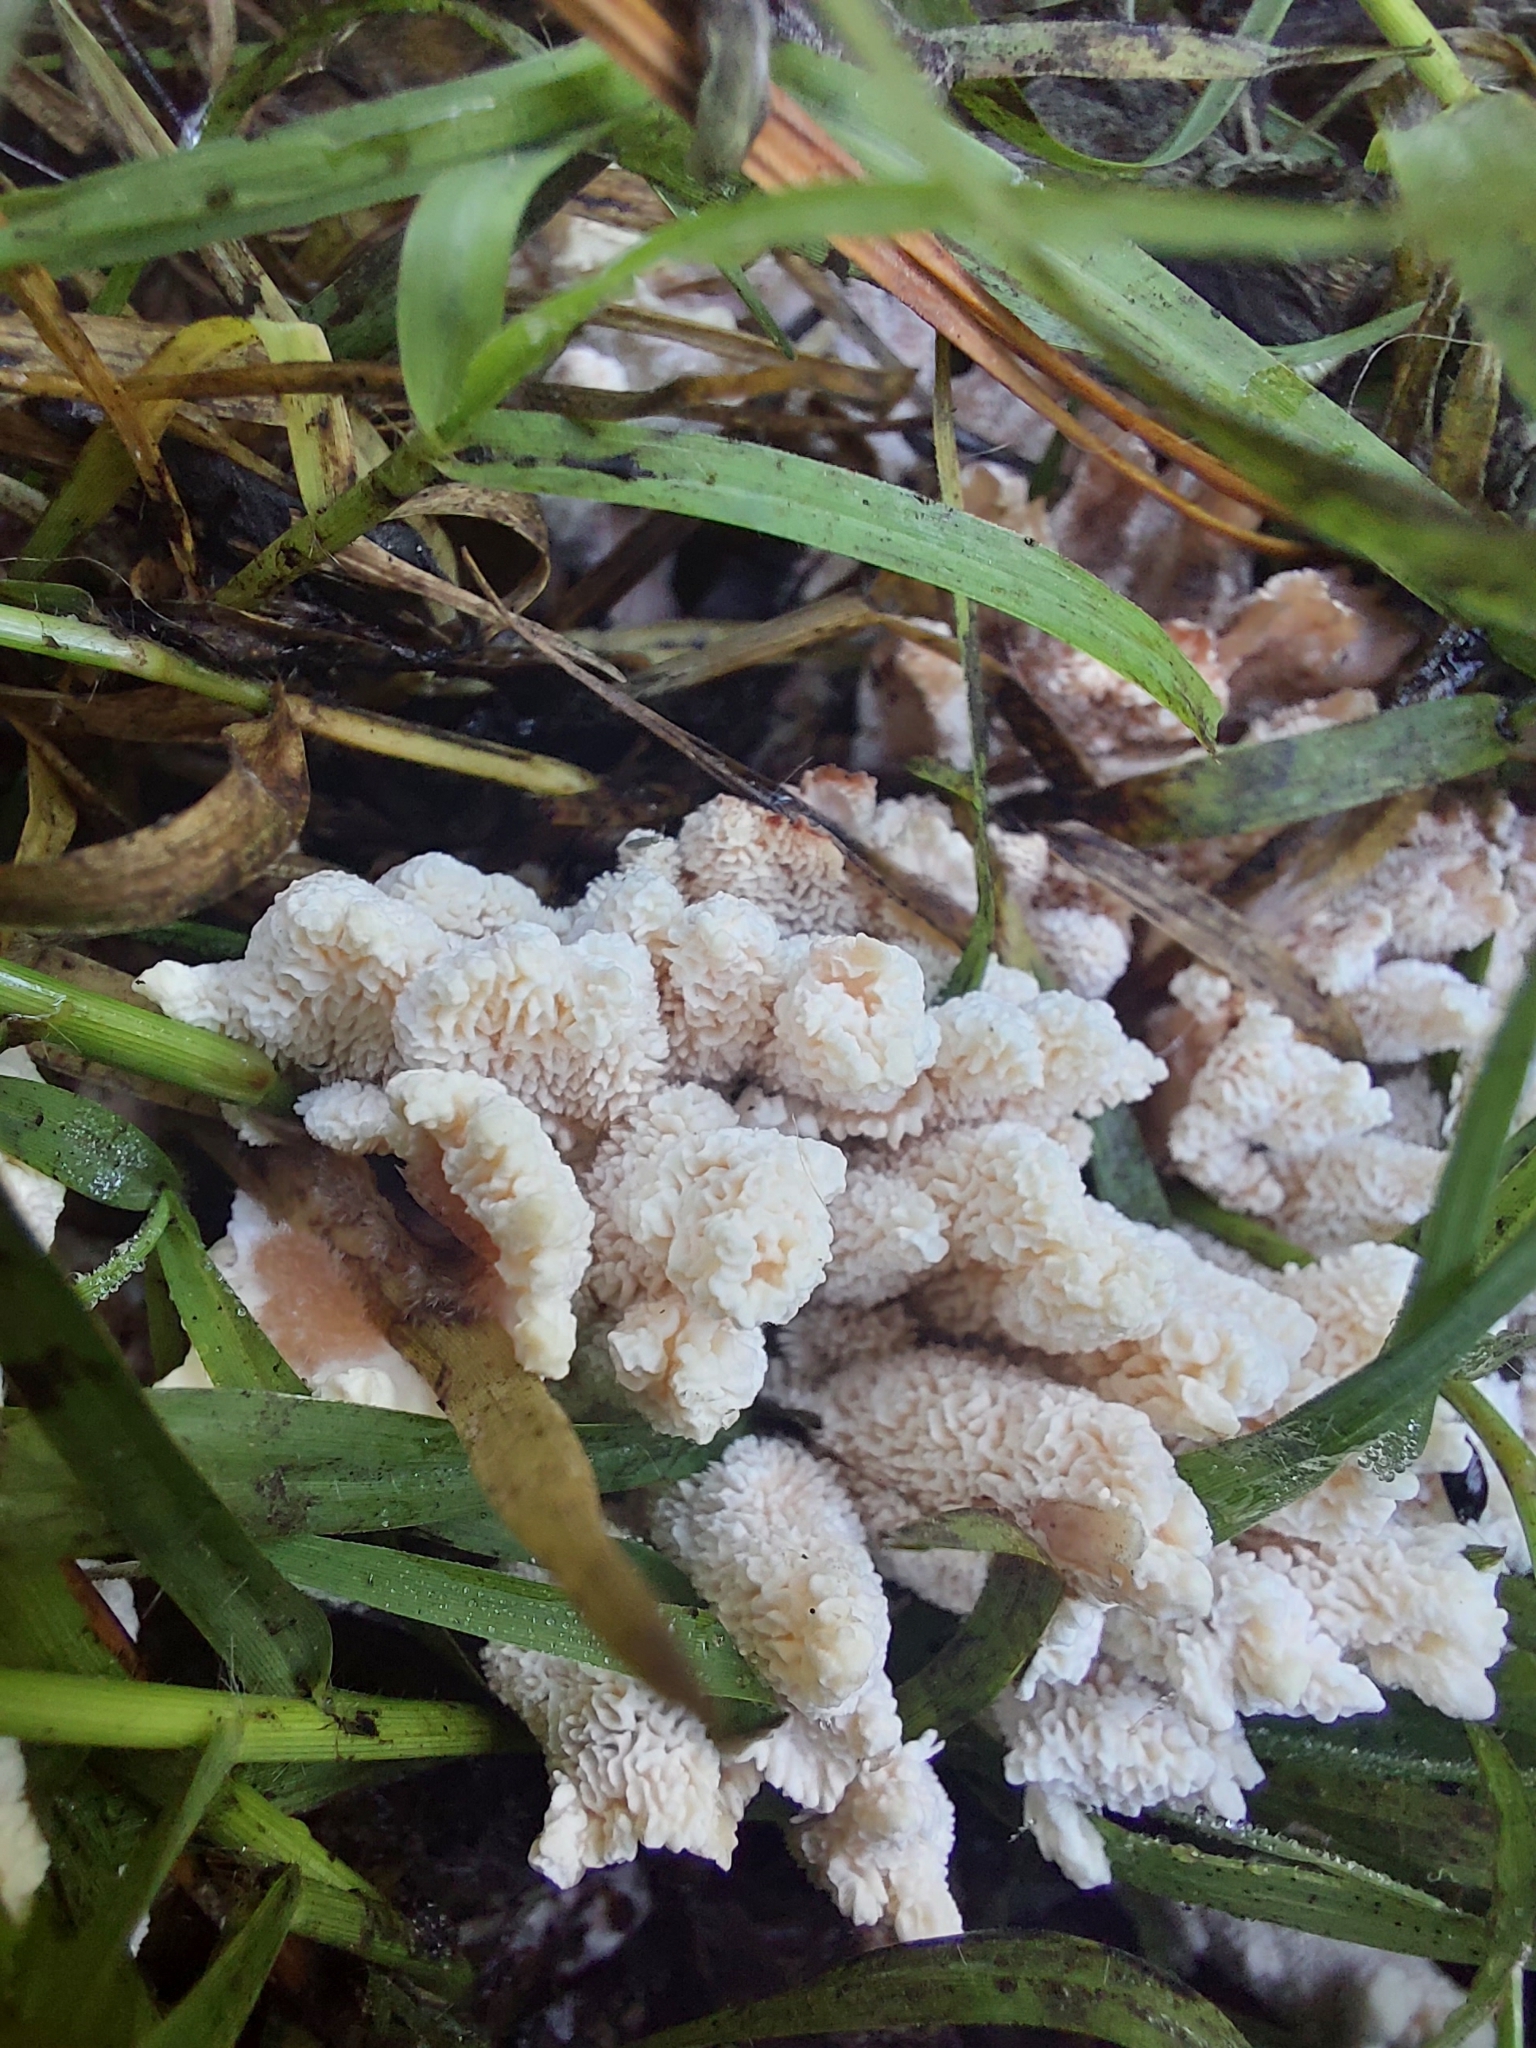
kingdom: Fungi
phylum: Basidiomycota
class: Agaricomycetes
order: Polyporales
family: Podoscyphaceae
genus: Abortiporus
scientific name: Abortiporus biennis
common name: Blushing rosette
